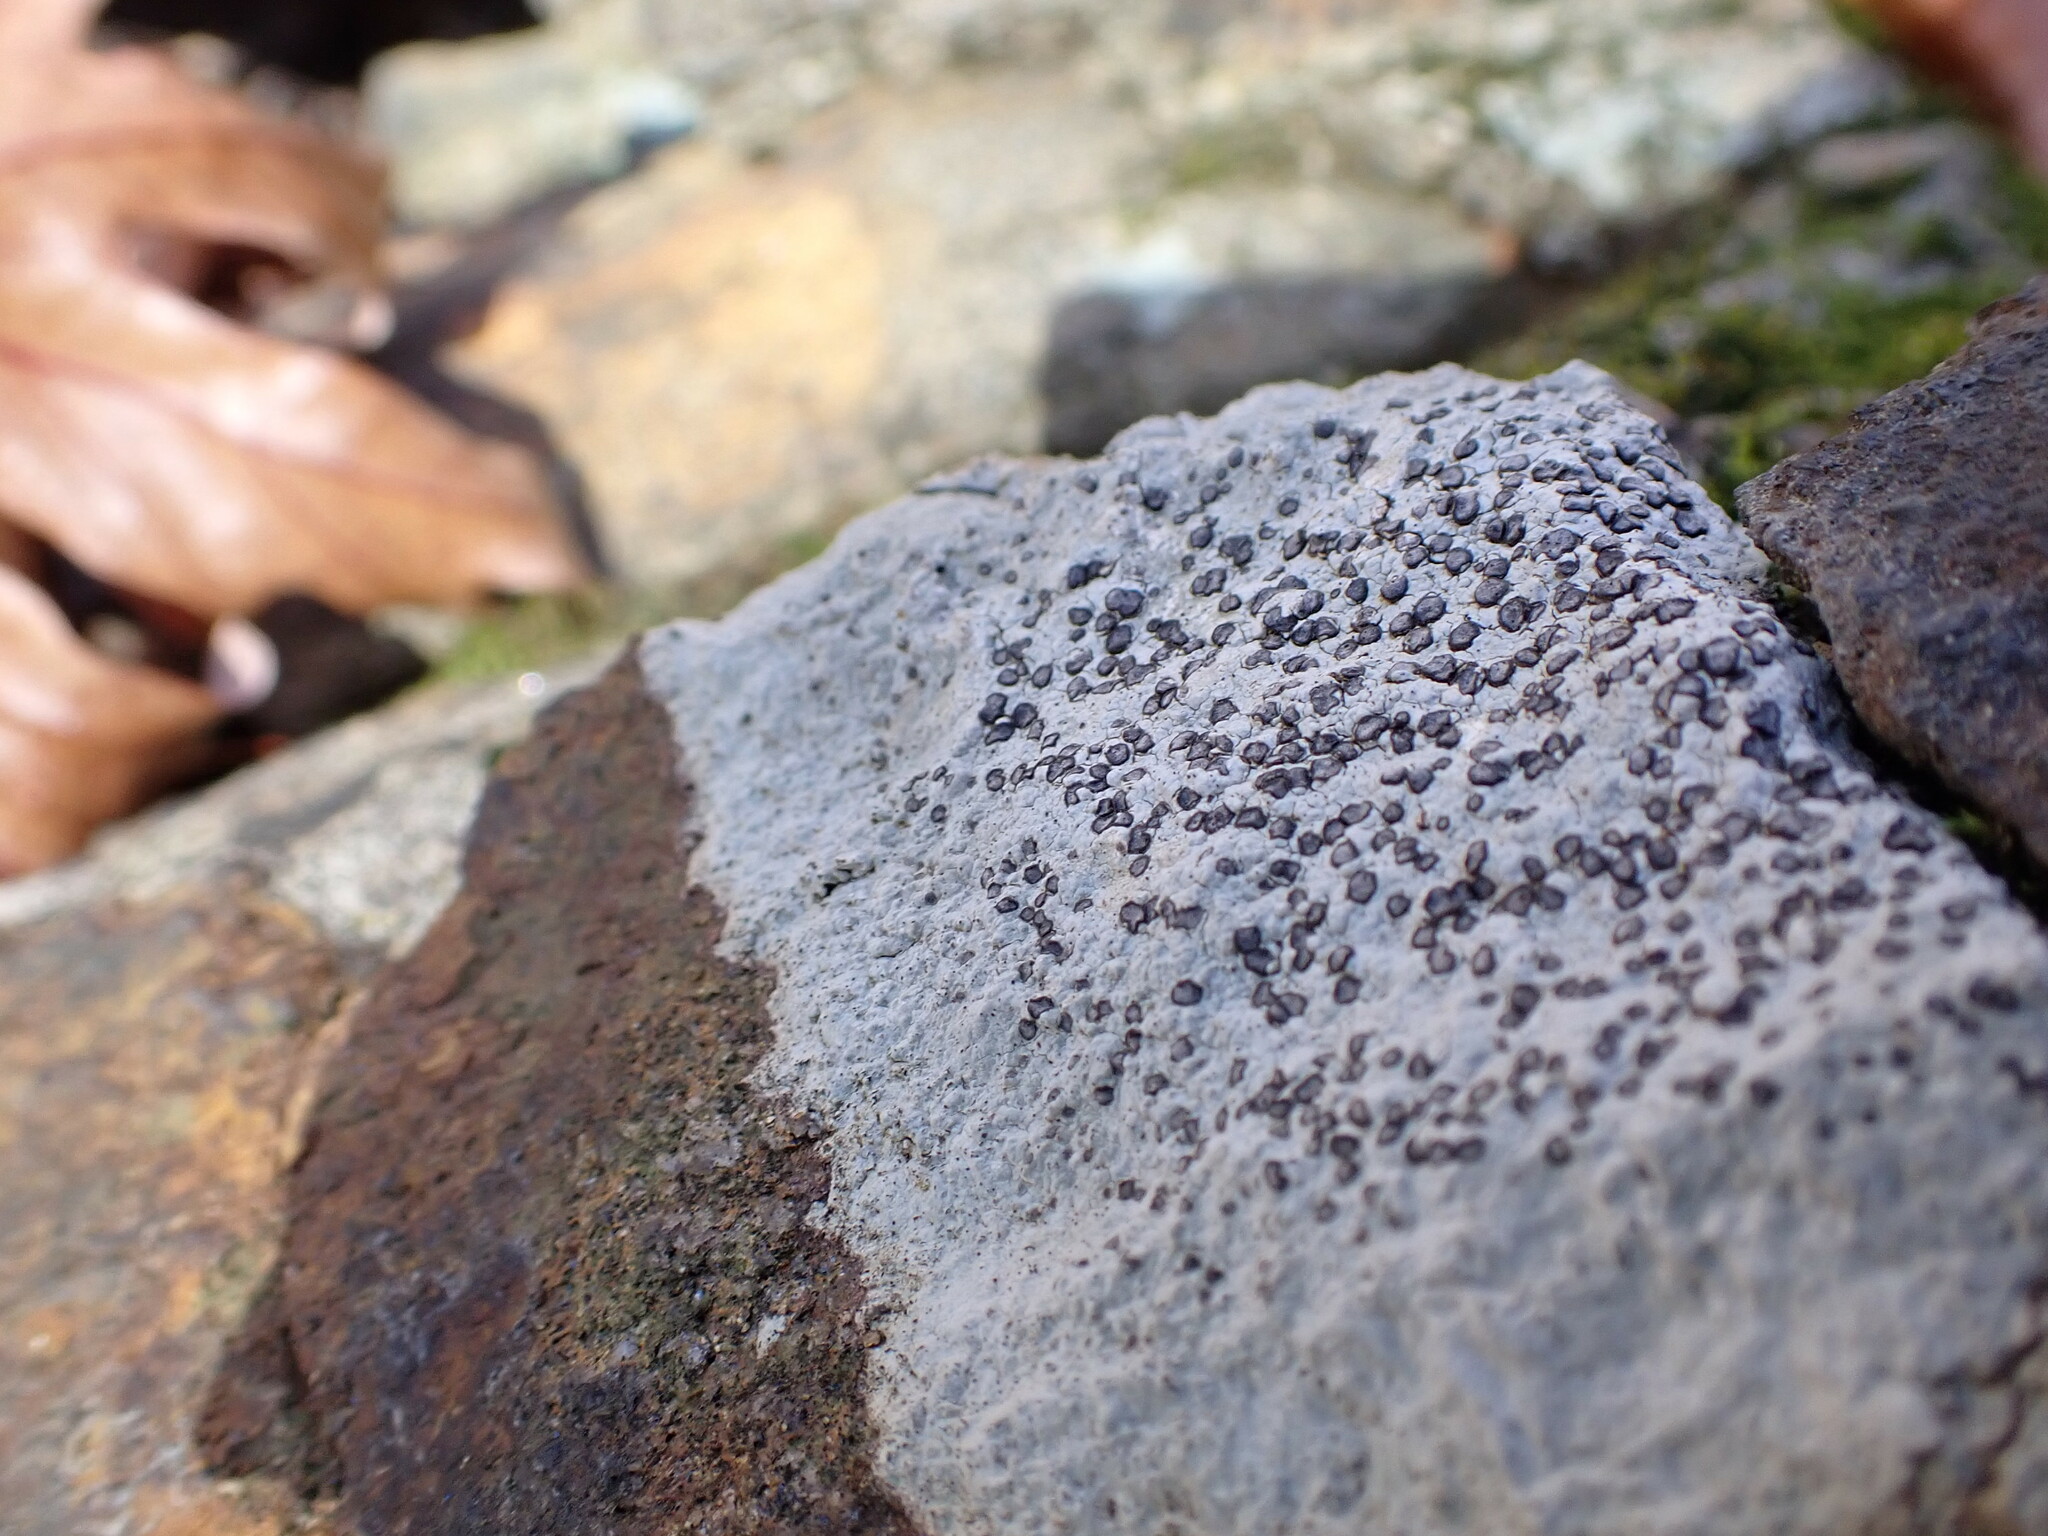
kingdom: Fungi
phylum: Ascomycota
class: Lecanoromycetes
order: Lecideales
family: Lecideaceae
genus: Porpidia
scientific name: Porpidia albocaerulescens
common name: Smokey-eyed boulder lichen
